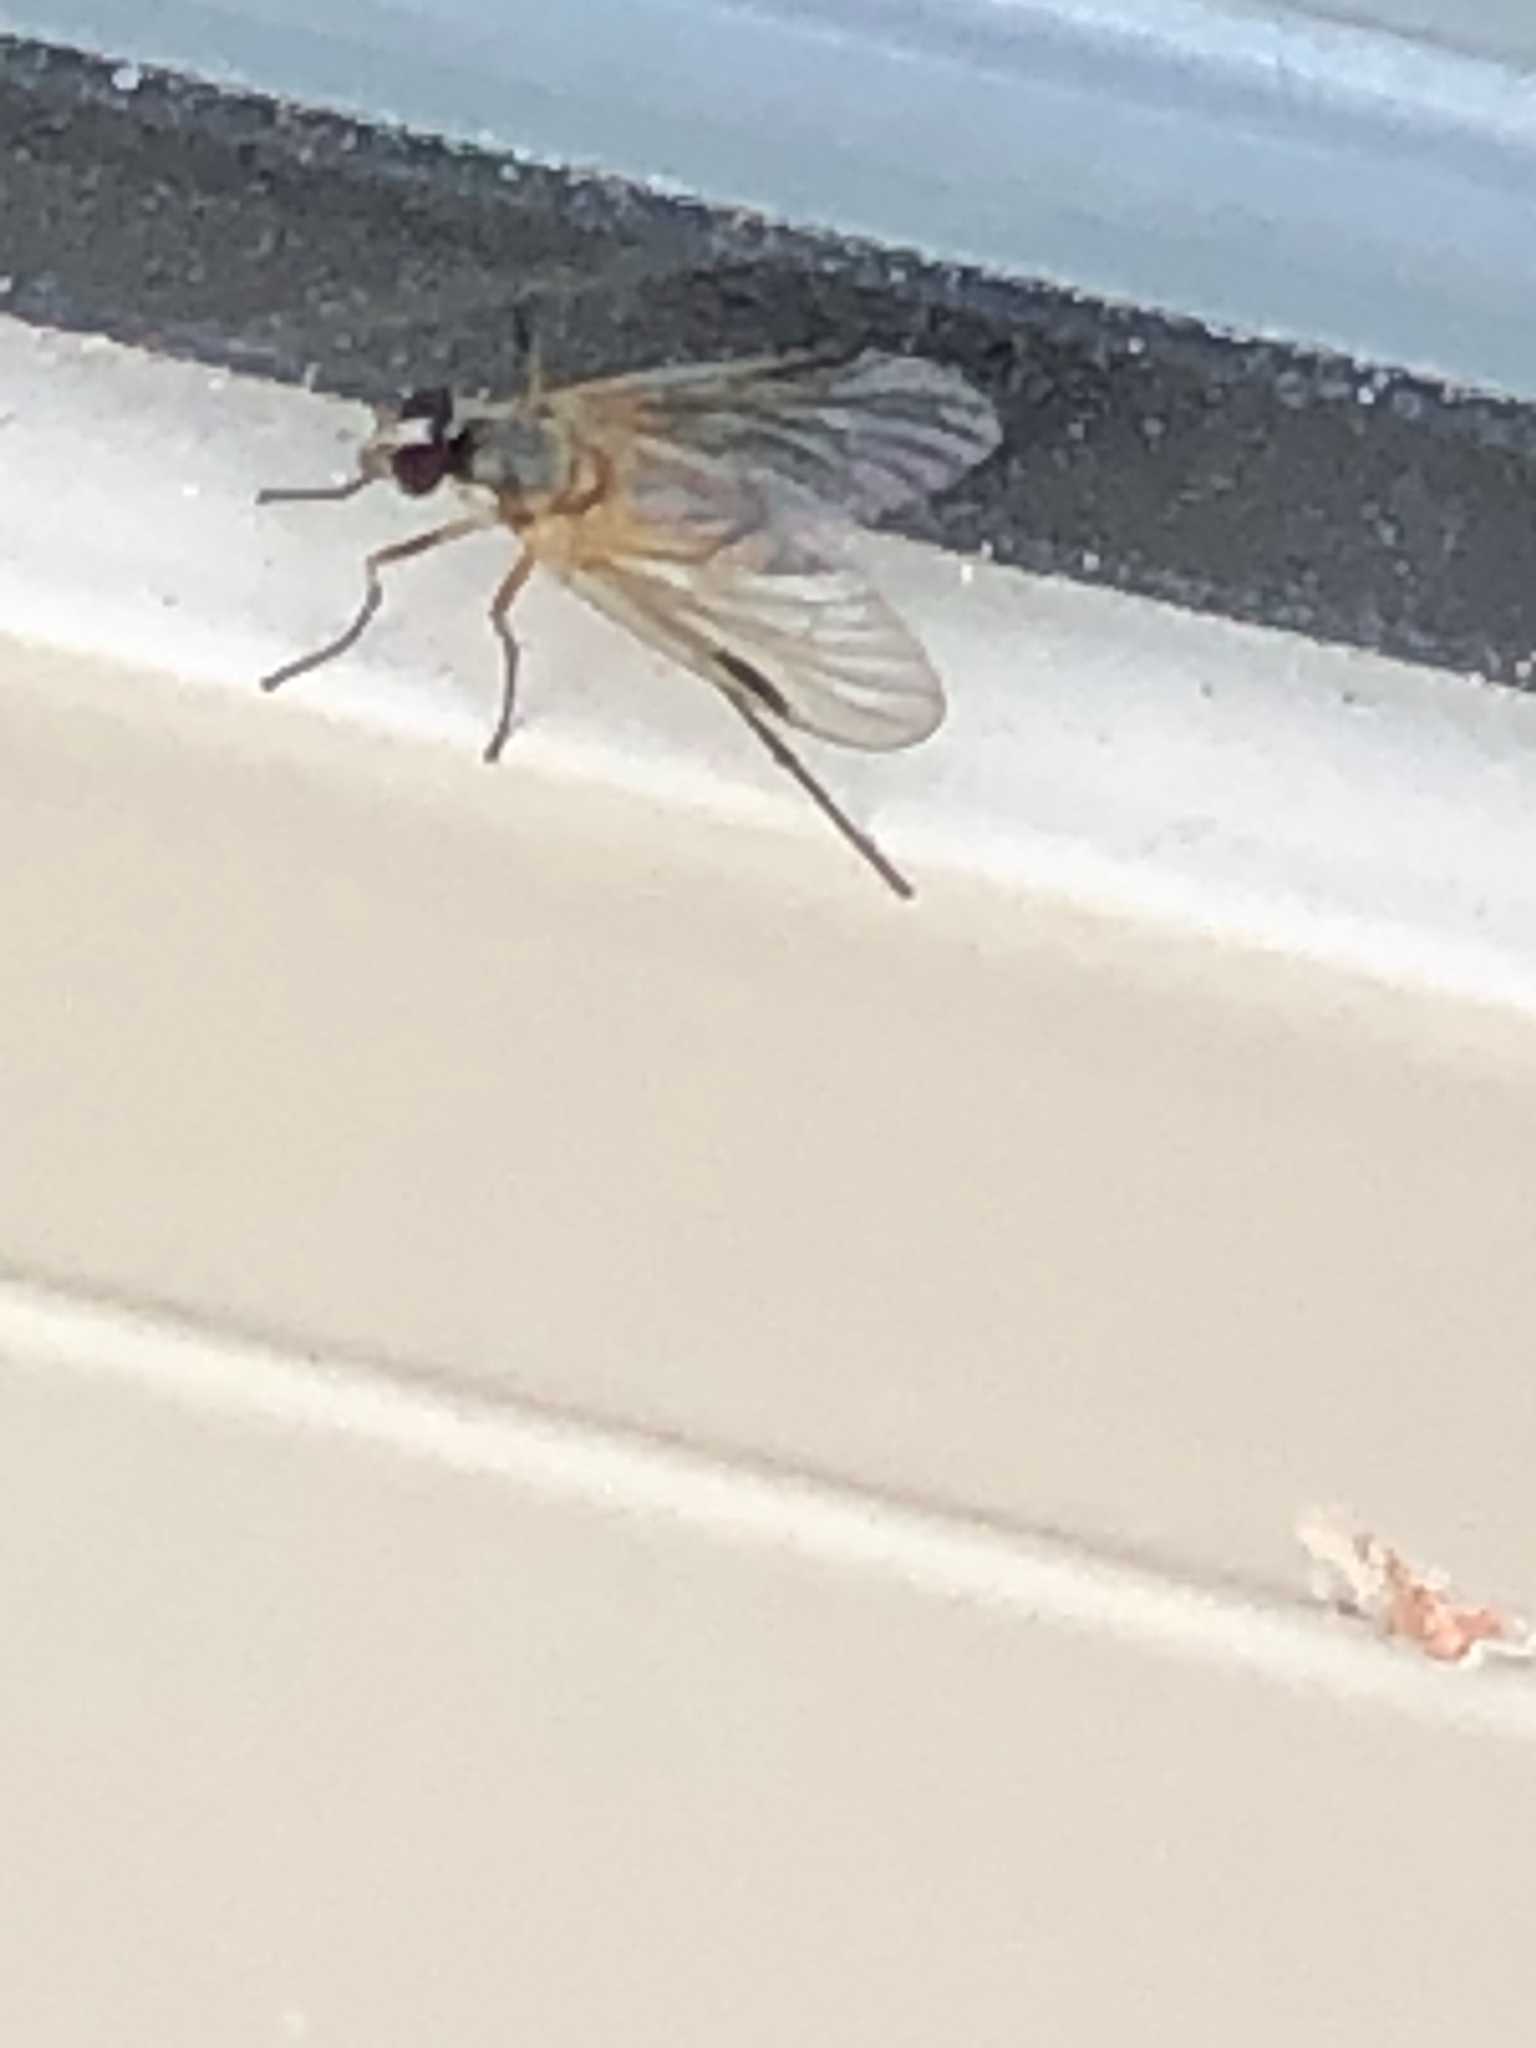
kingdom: Animalia
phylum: Arthropoda
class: Insecta
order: Diptera
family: Rhagionidae
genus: Rhagio
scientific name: Rhagio lineola
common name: Small fleck-winged snipefly
